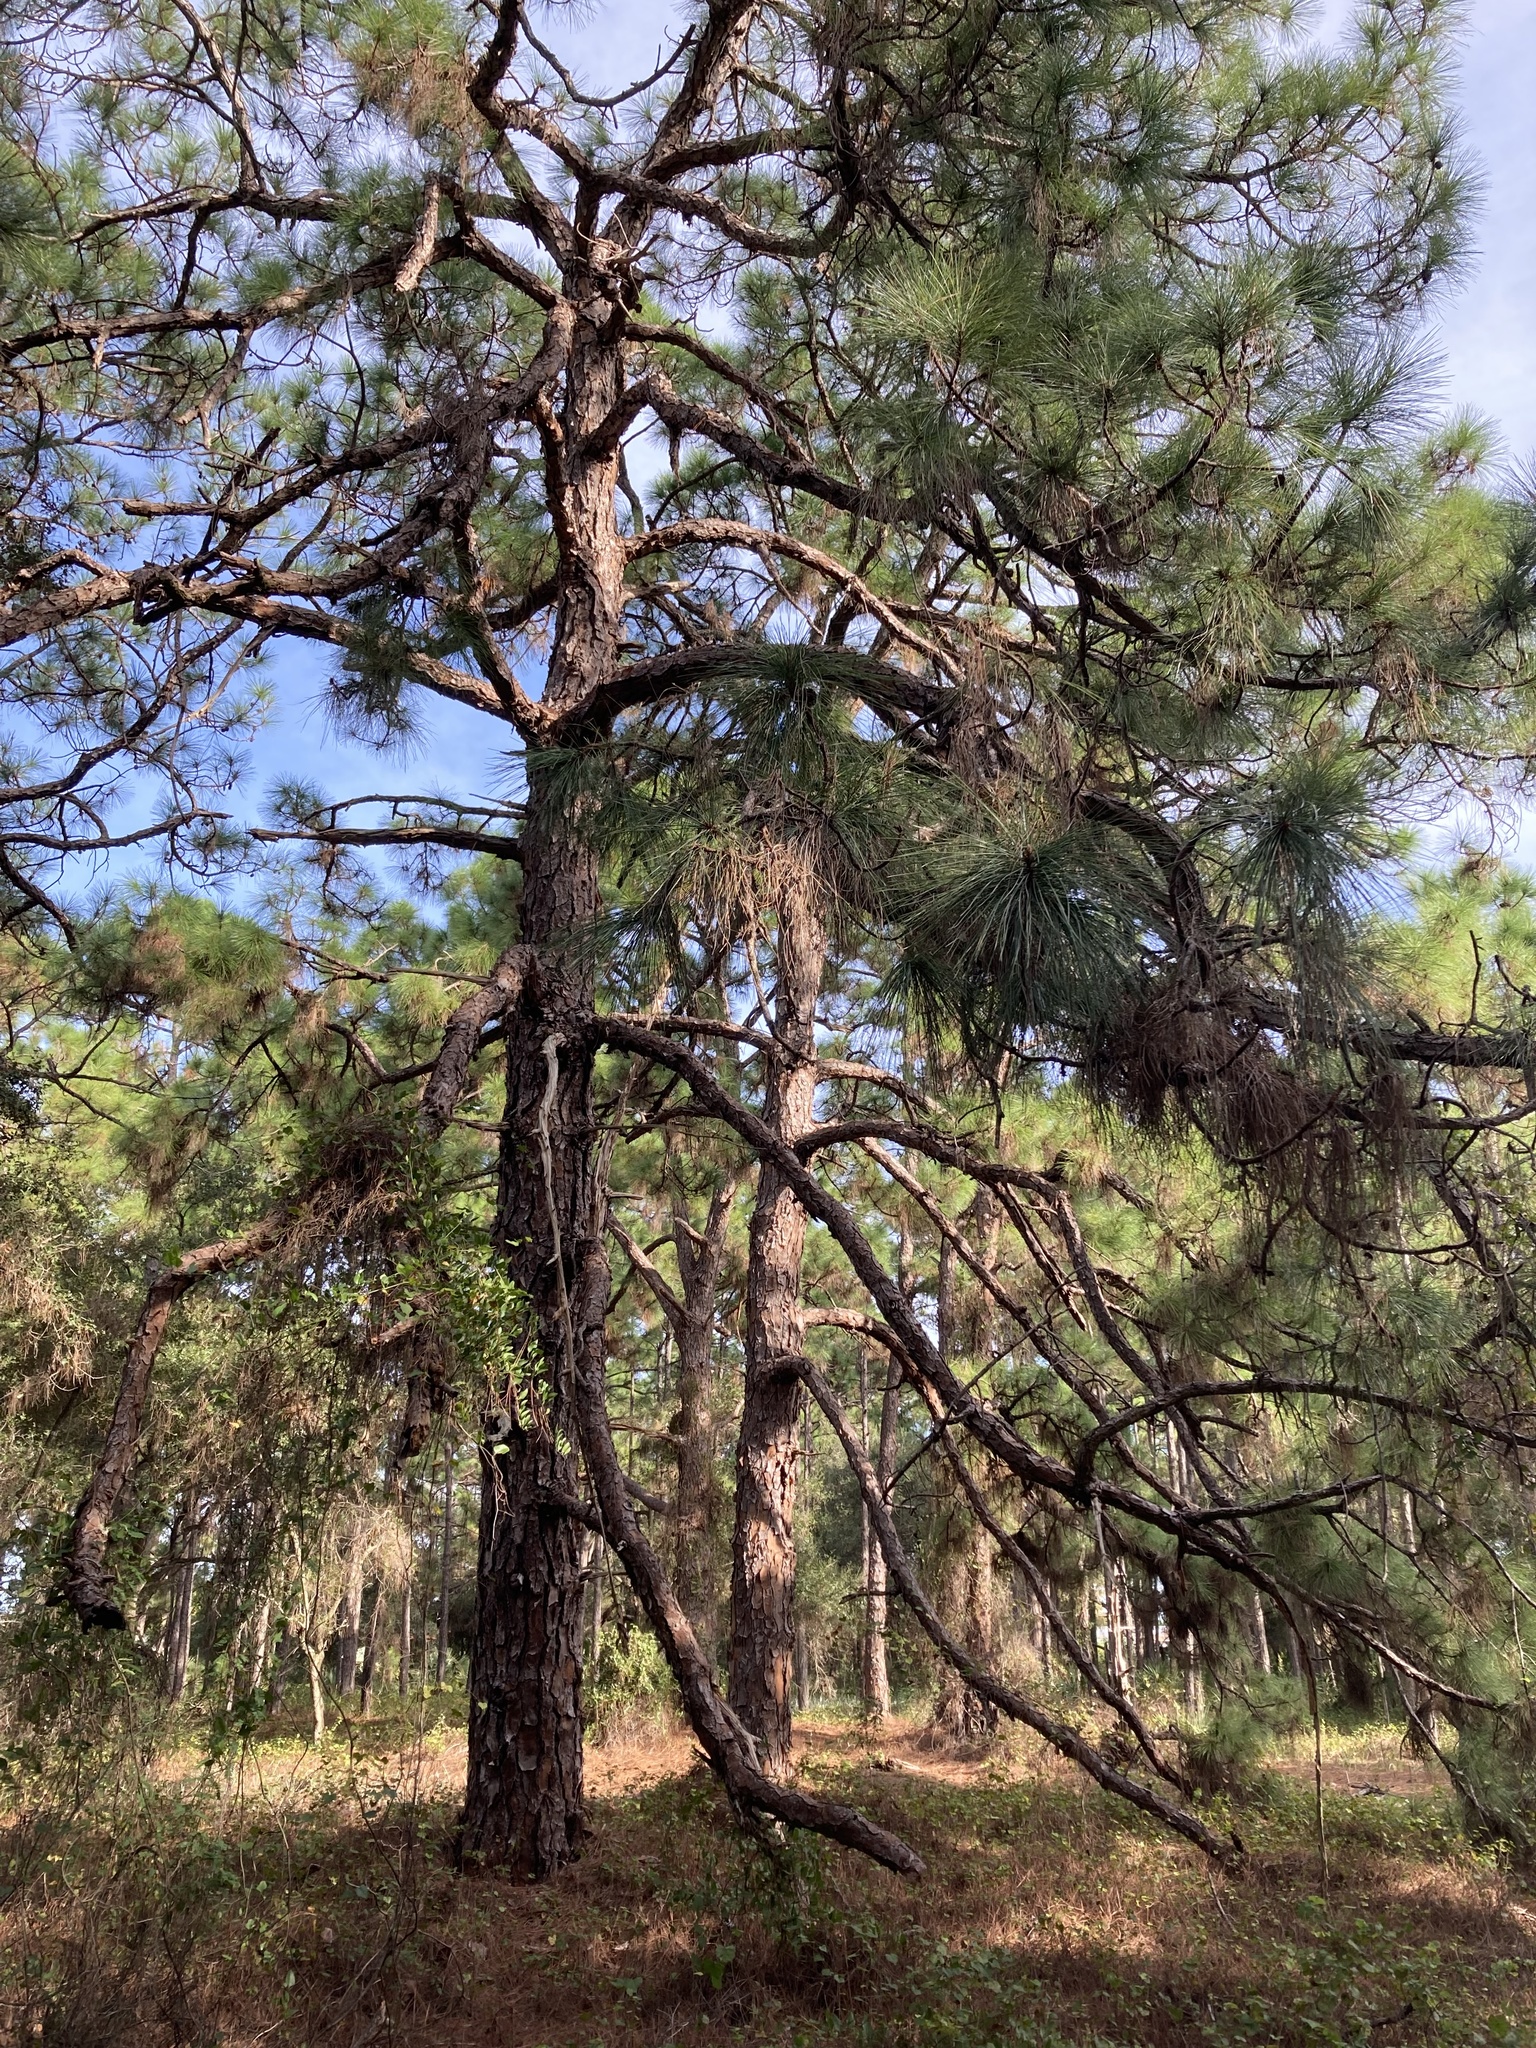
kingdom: Plantae
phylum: Tracheophyta
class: Pinopsida
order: Pinales
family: Pinaceae
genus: Pinus
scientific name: Pinus elliottii
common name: Slash pine
